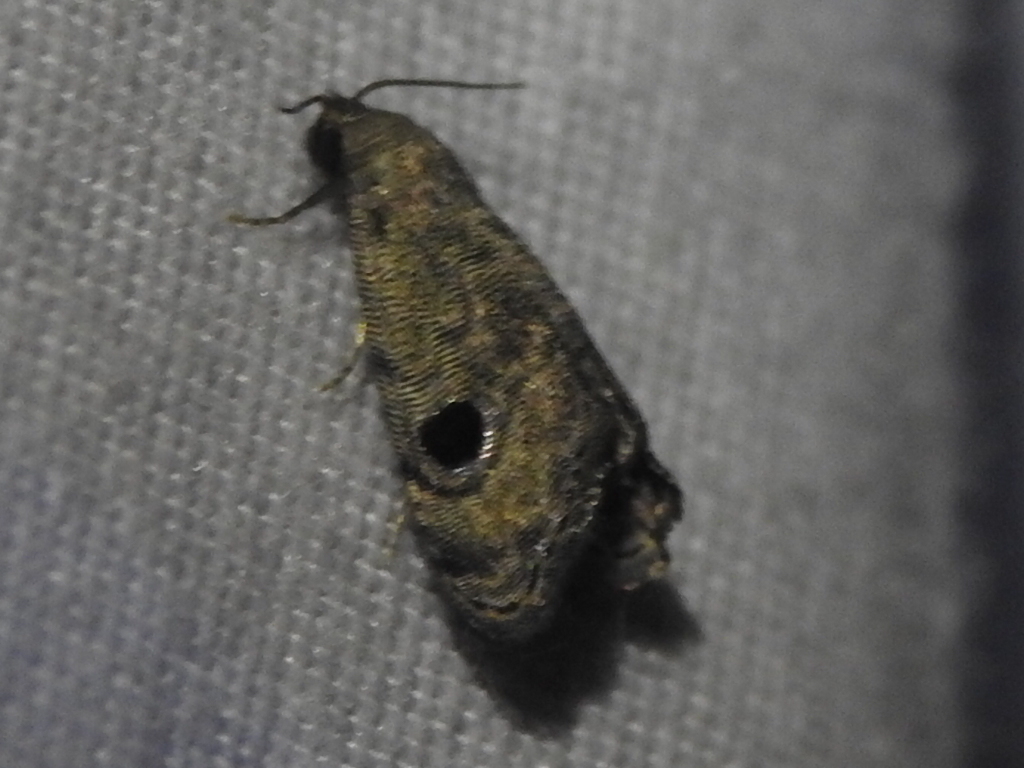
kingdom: Animalia
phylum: Arthropoda
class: Insecta
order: Lepidoptera
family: Noctuidae
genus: Abablemma
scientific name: Abablemma brimleyana
